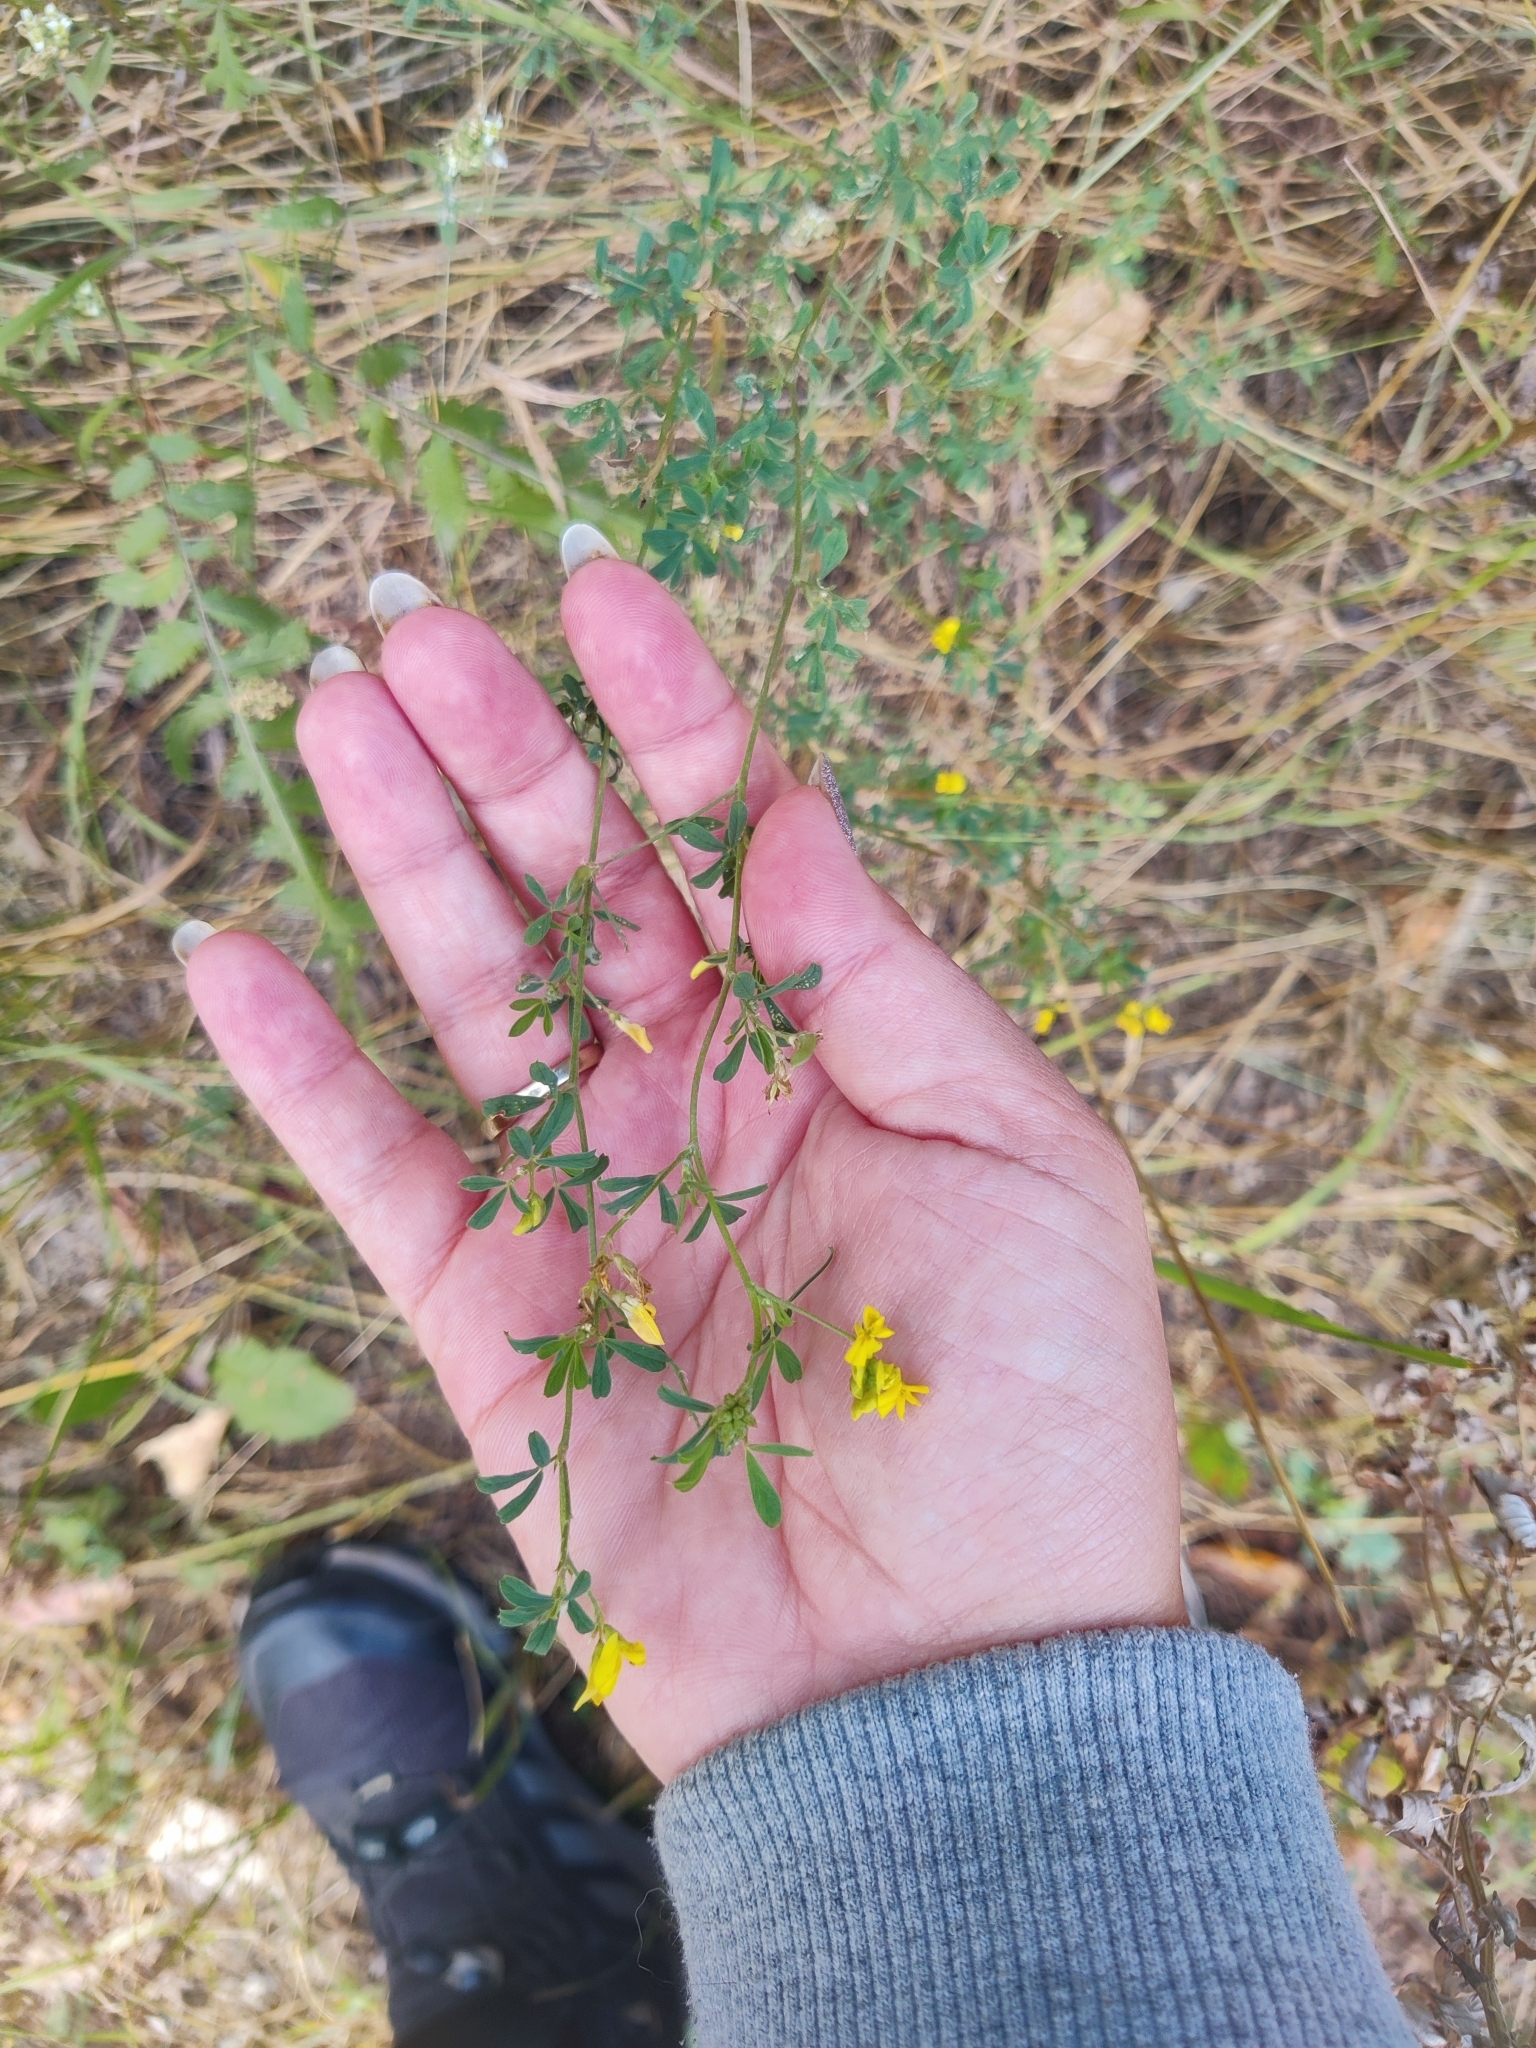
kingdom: Plantae
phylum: Tracheophyta
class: Magnoliopsida
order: Fabales
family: Fabaceae
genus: Medicago
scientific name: Medicago falcata
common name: Sickle medick
